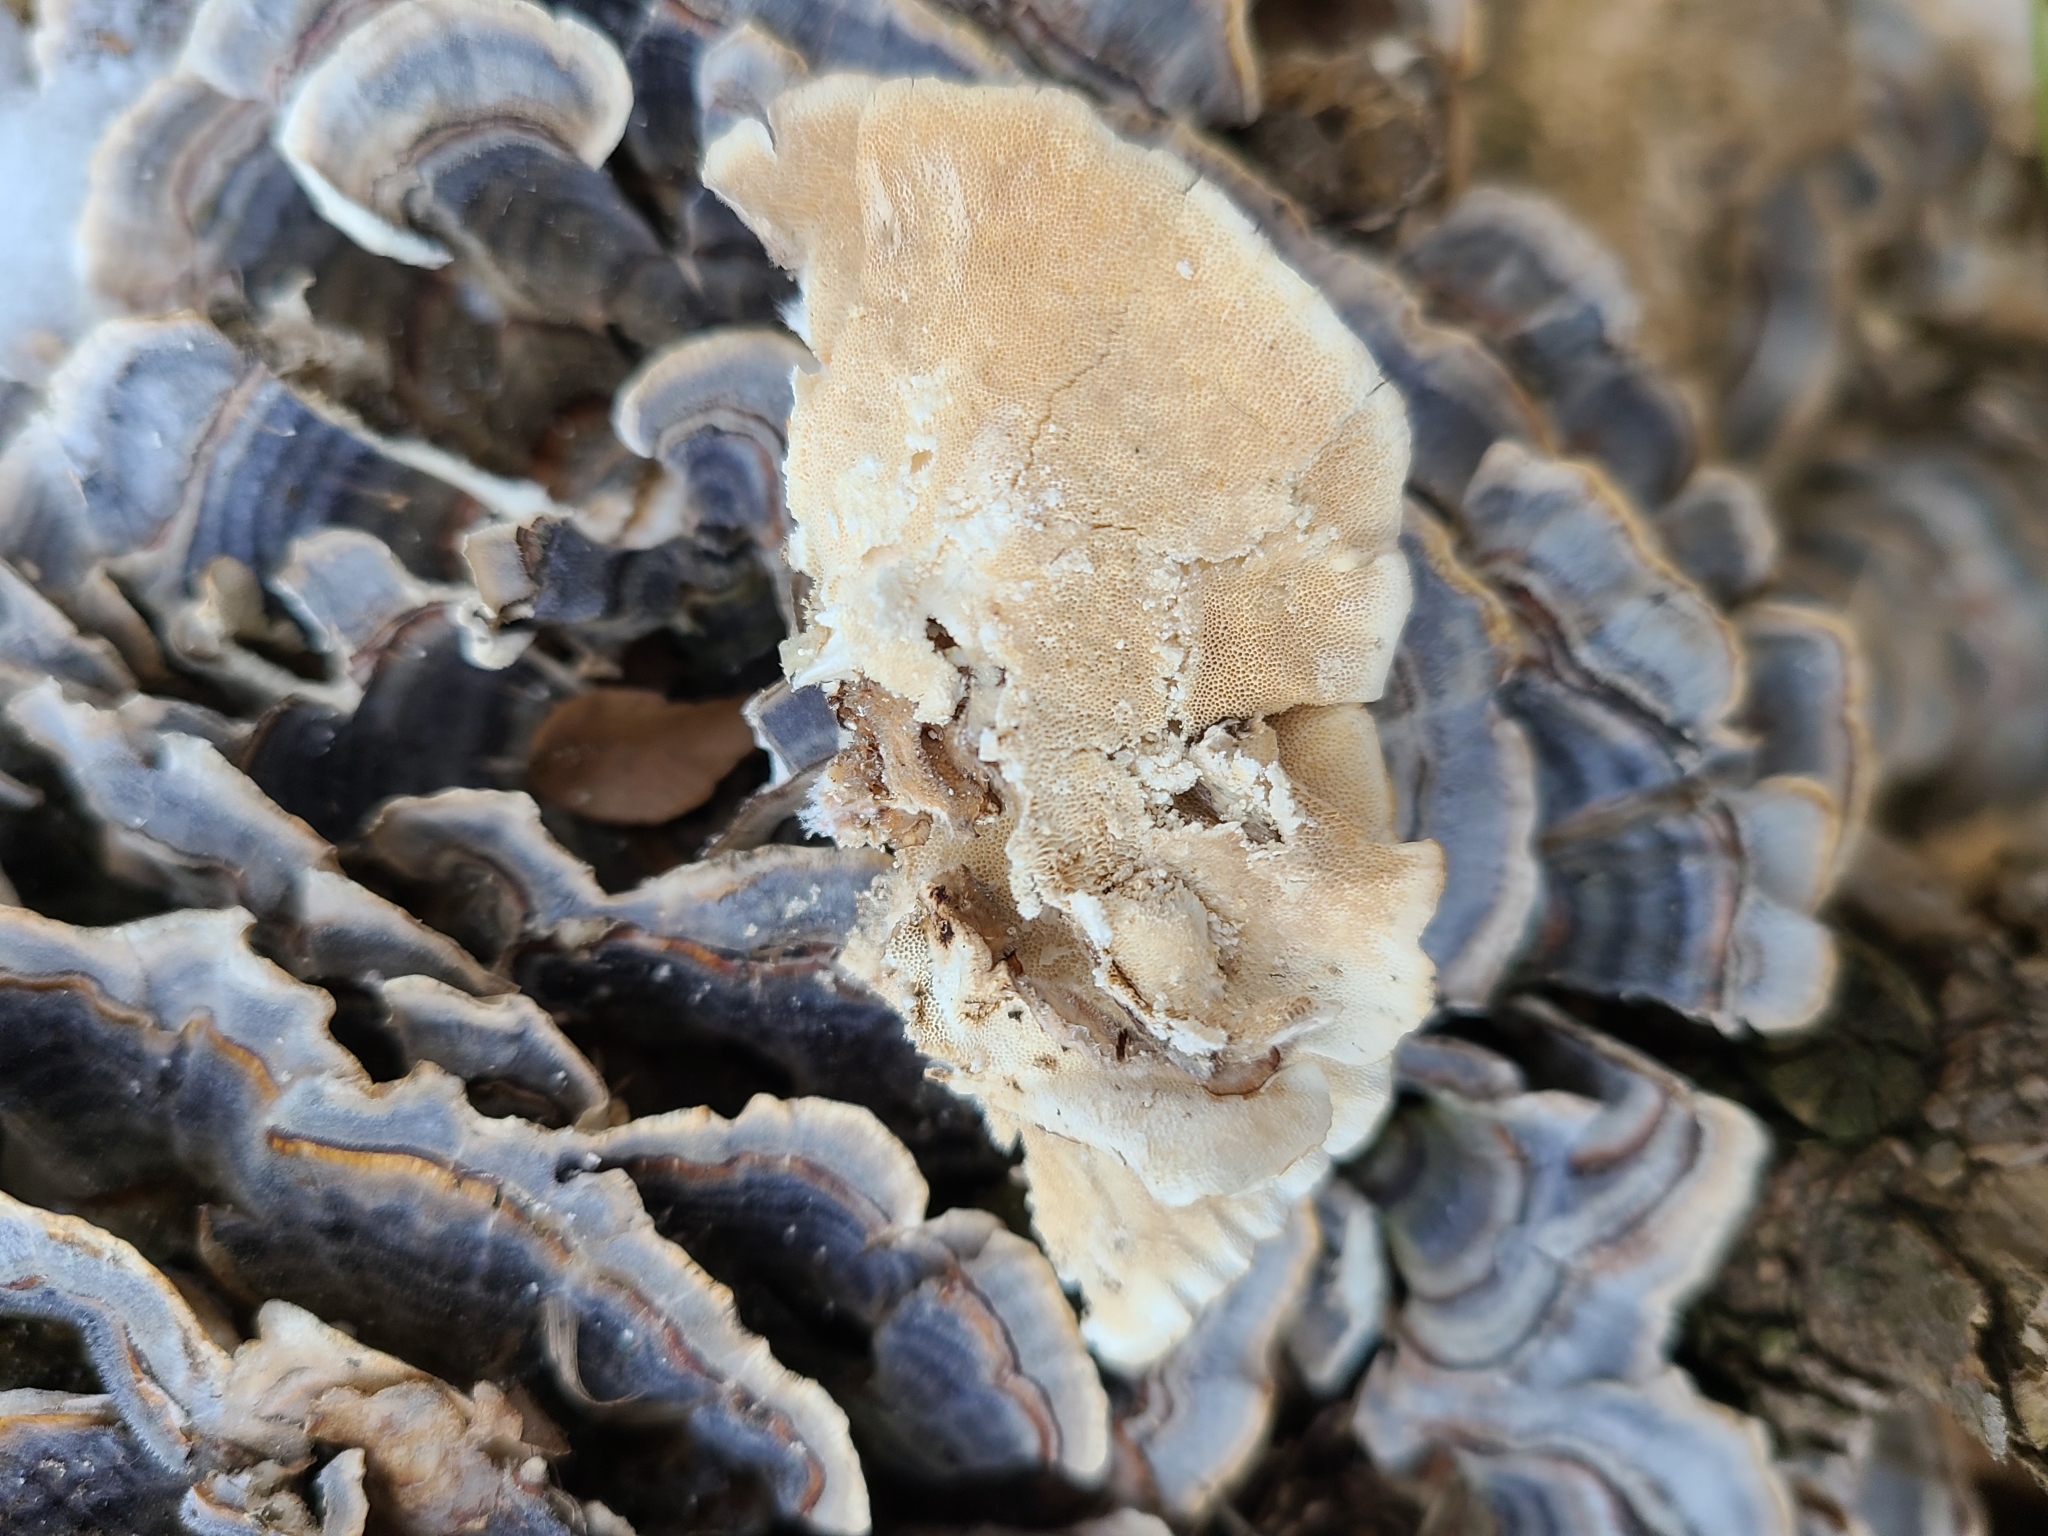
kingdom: Fungi
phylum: Basidiomycota
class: Agaricomycetes
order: Polyporales
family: Polyporaceae
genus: Trametes
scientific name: Trametes versicolor
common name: Turkeytail
